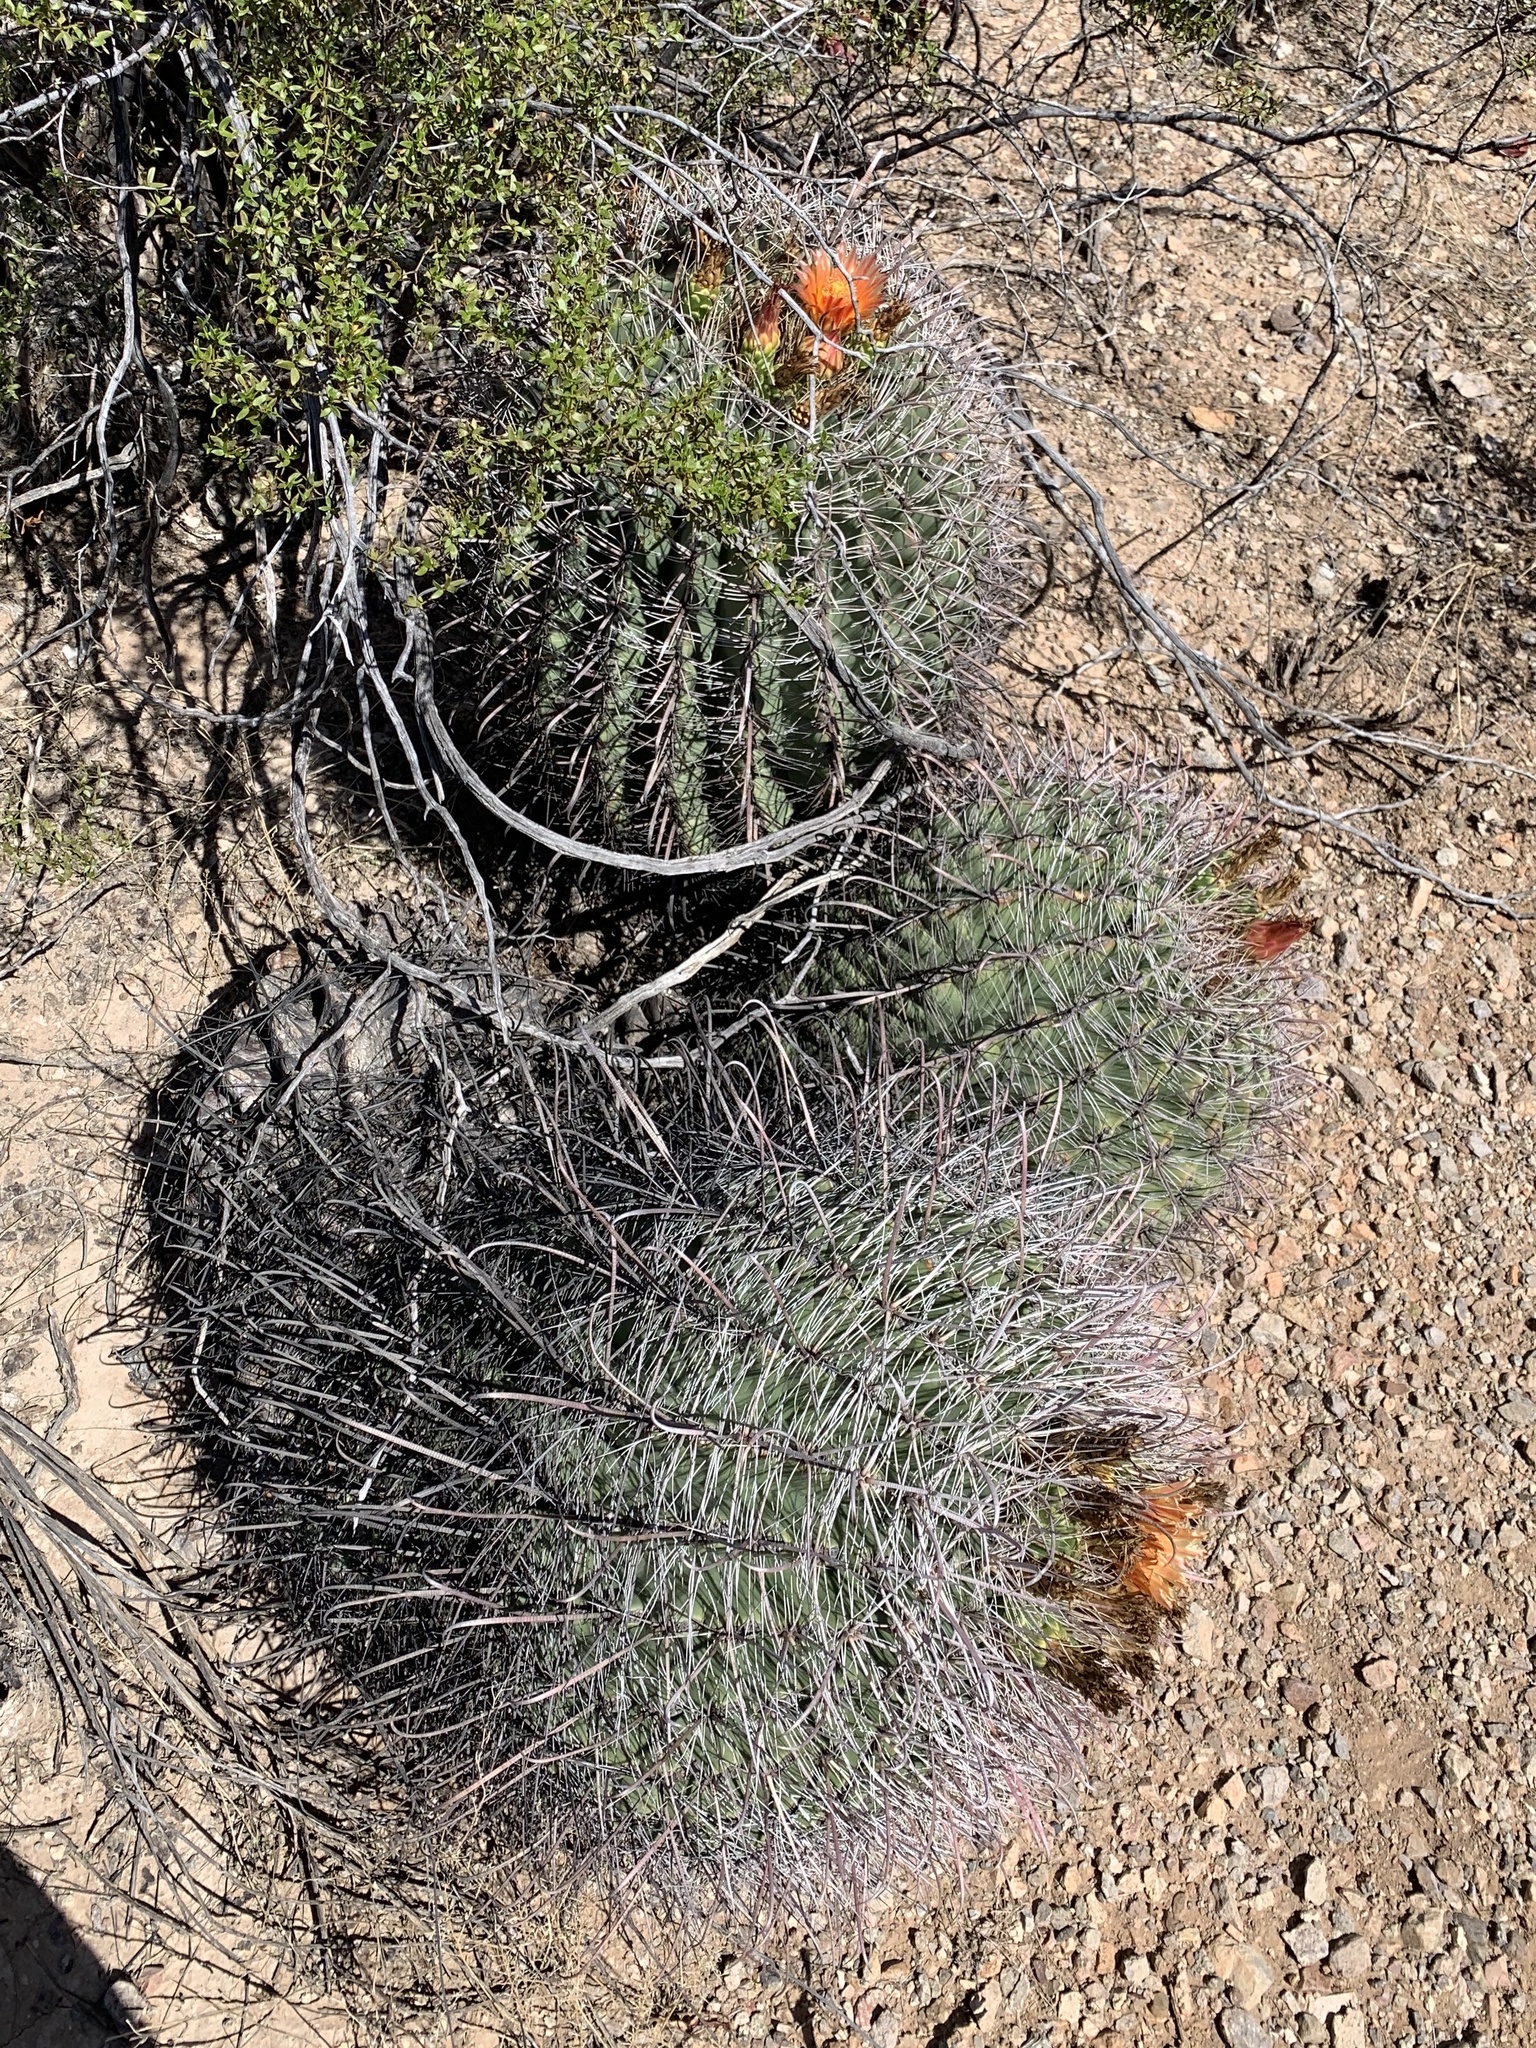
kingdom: Plantae
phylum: Tracheophyta
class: Magnoliopsida
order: Caryophyllales
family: Cactaceae
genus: Ferocactus
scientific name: Ferocactus wislizeni
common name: Candy barrel cactus
